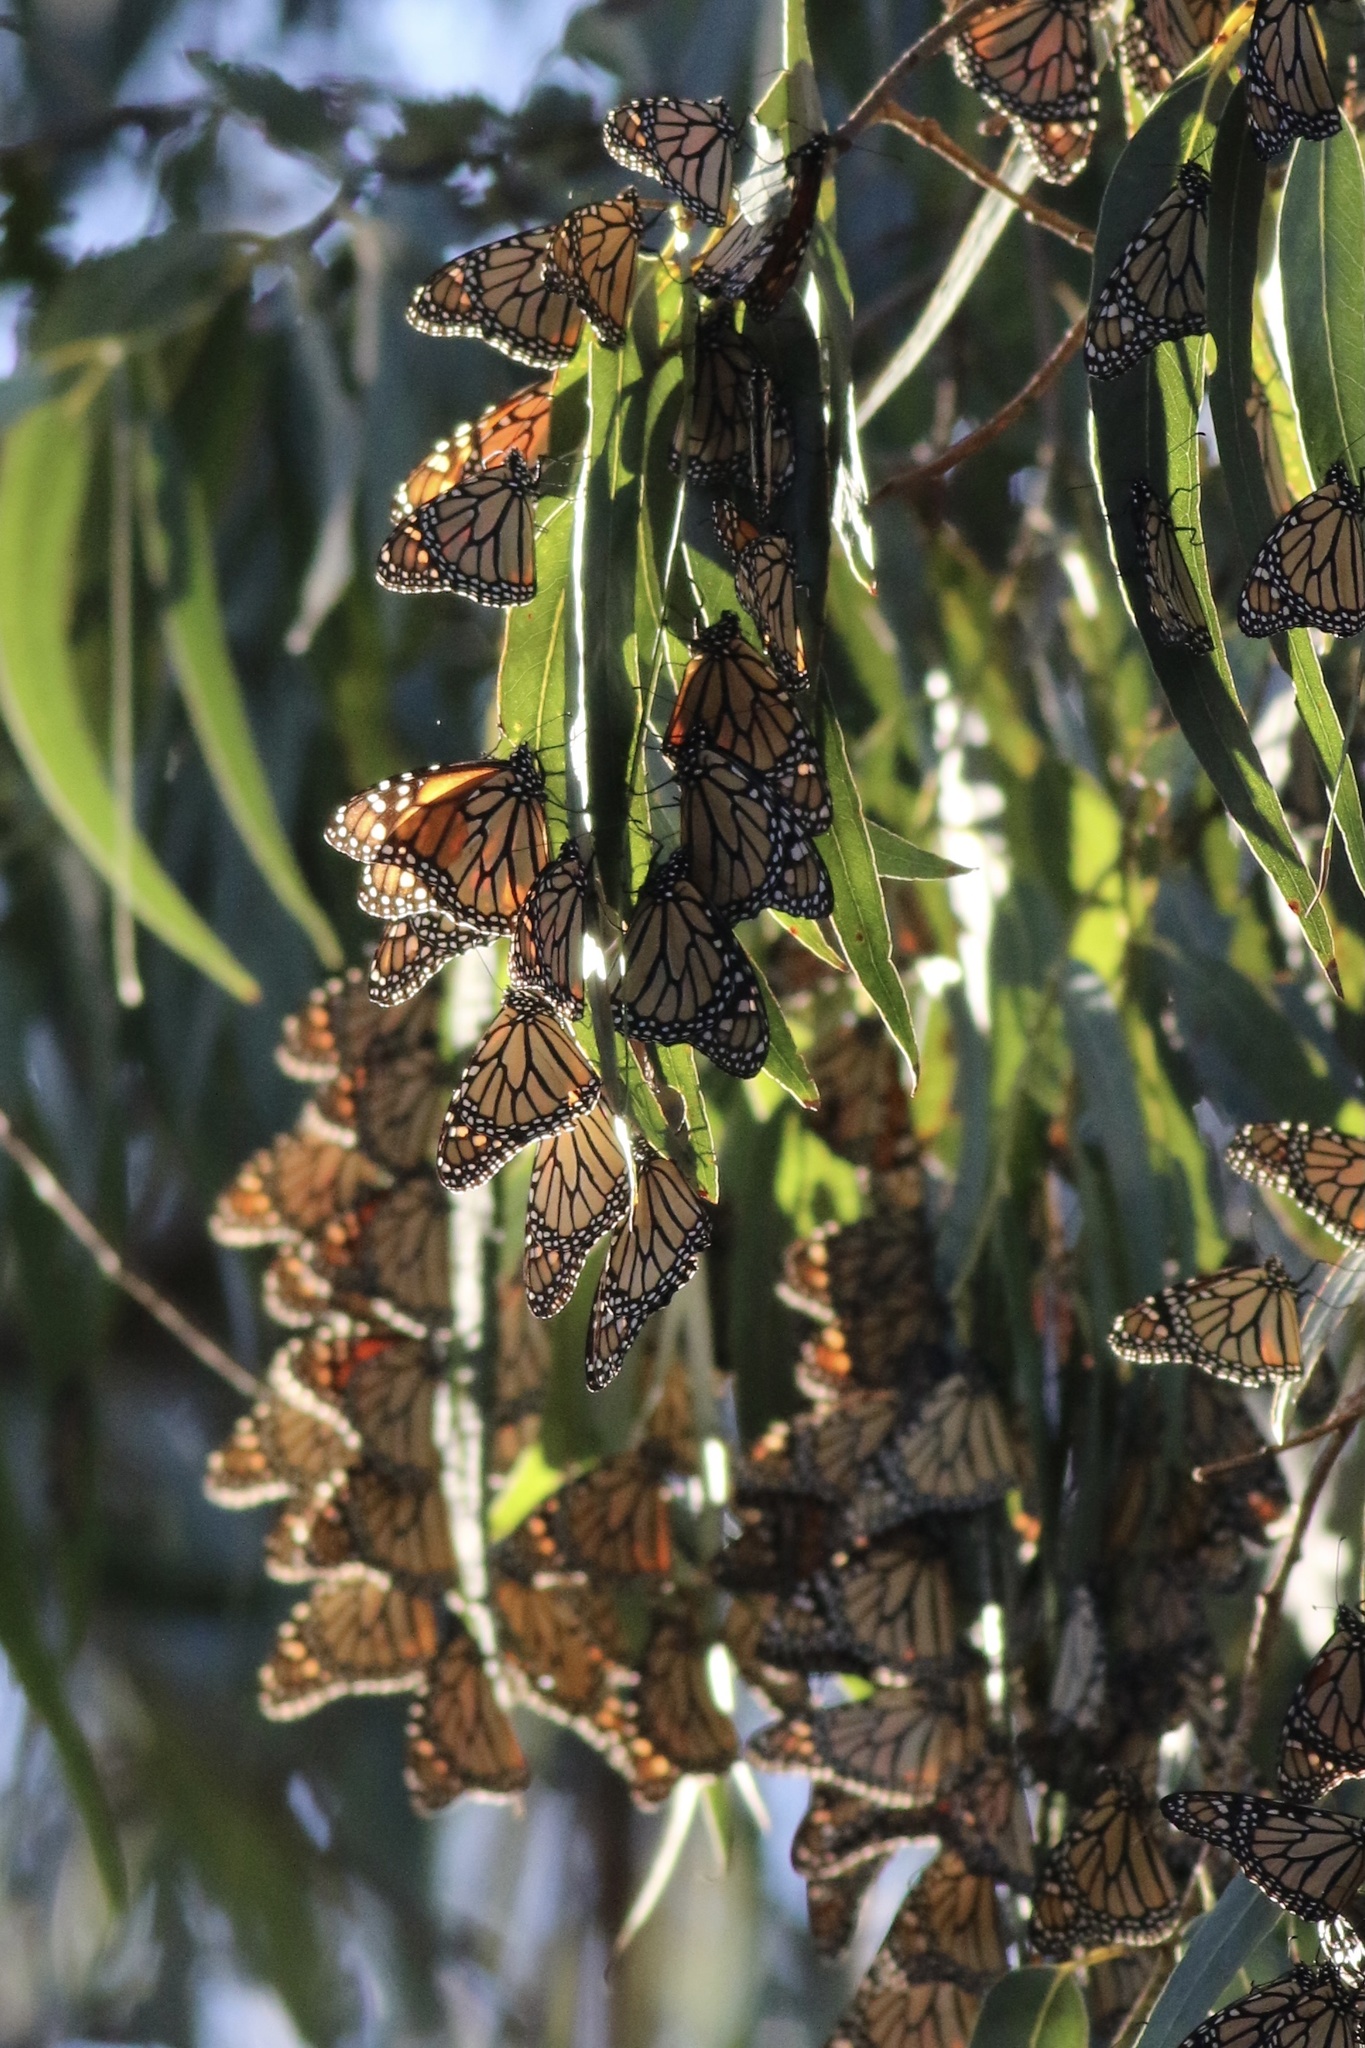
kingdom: Animalia
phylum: Arthropoda
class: Insecta
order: Lepidoptera
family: Nymphalidae
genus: Danaus
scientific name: Danaus plexippus
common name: Monarch
